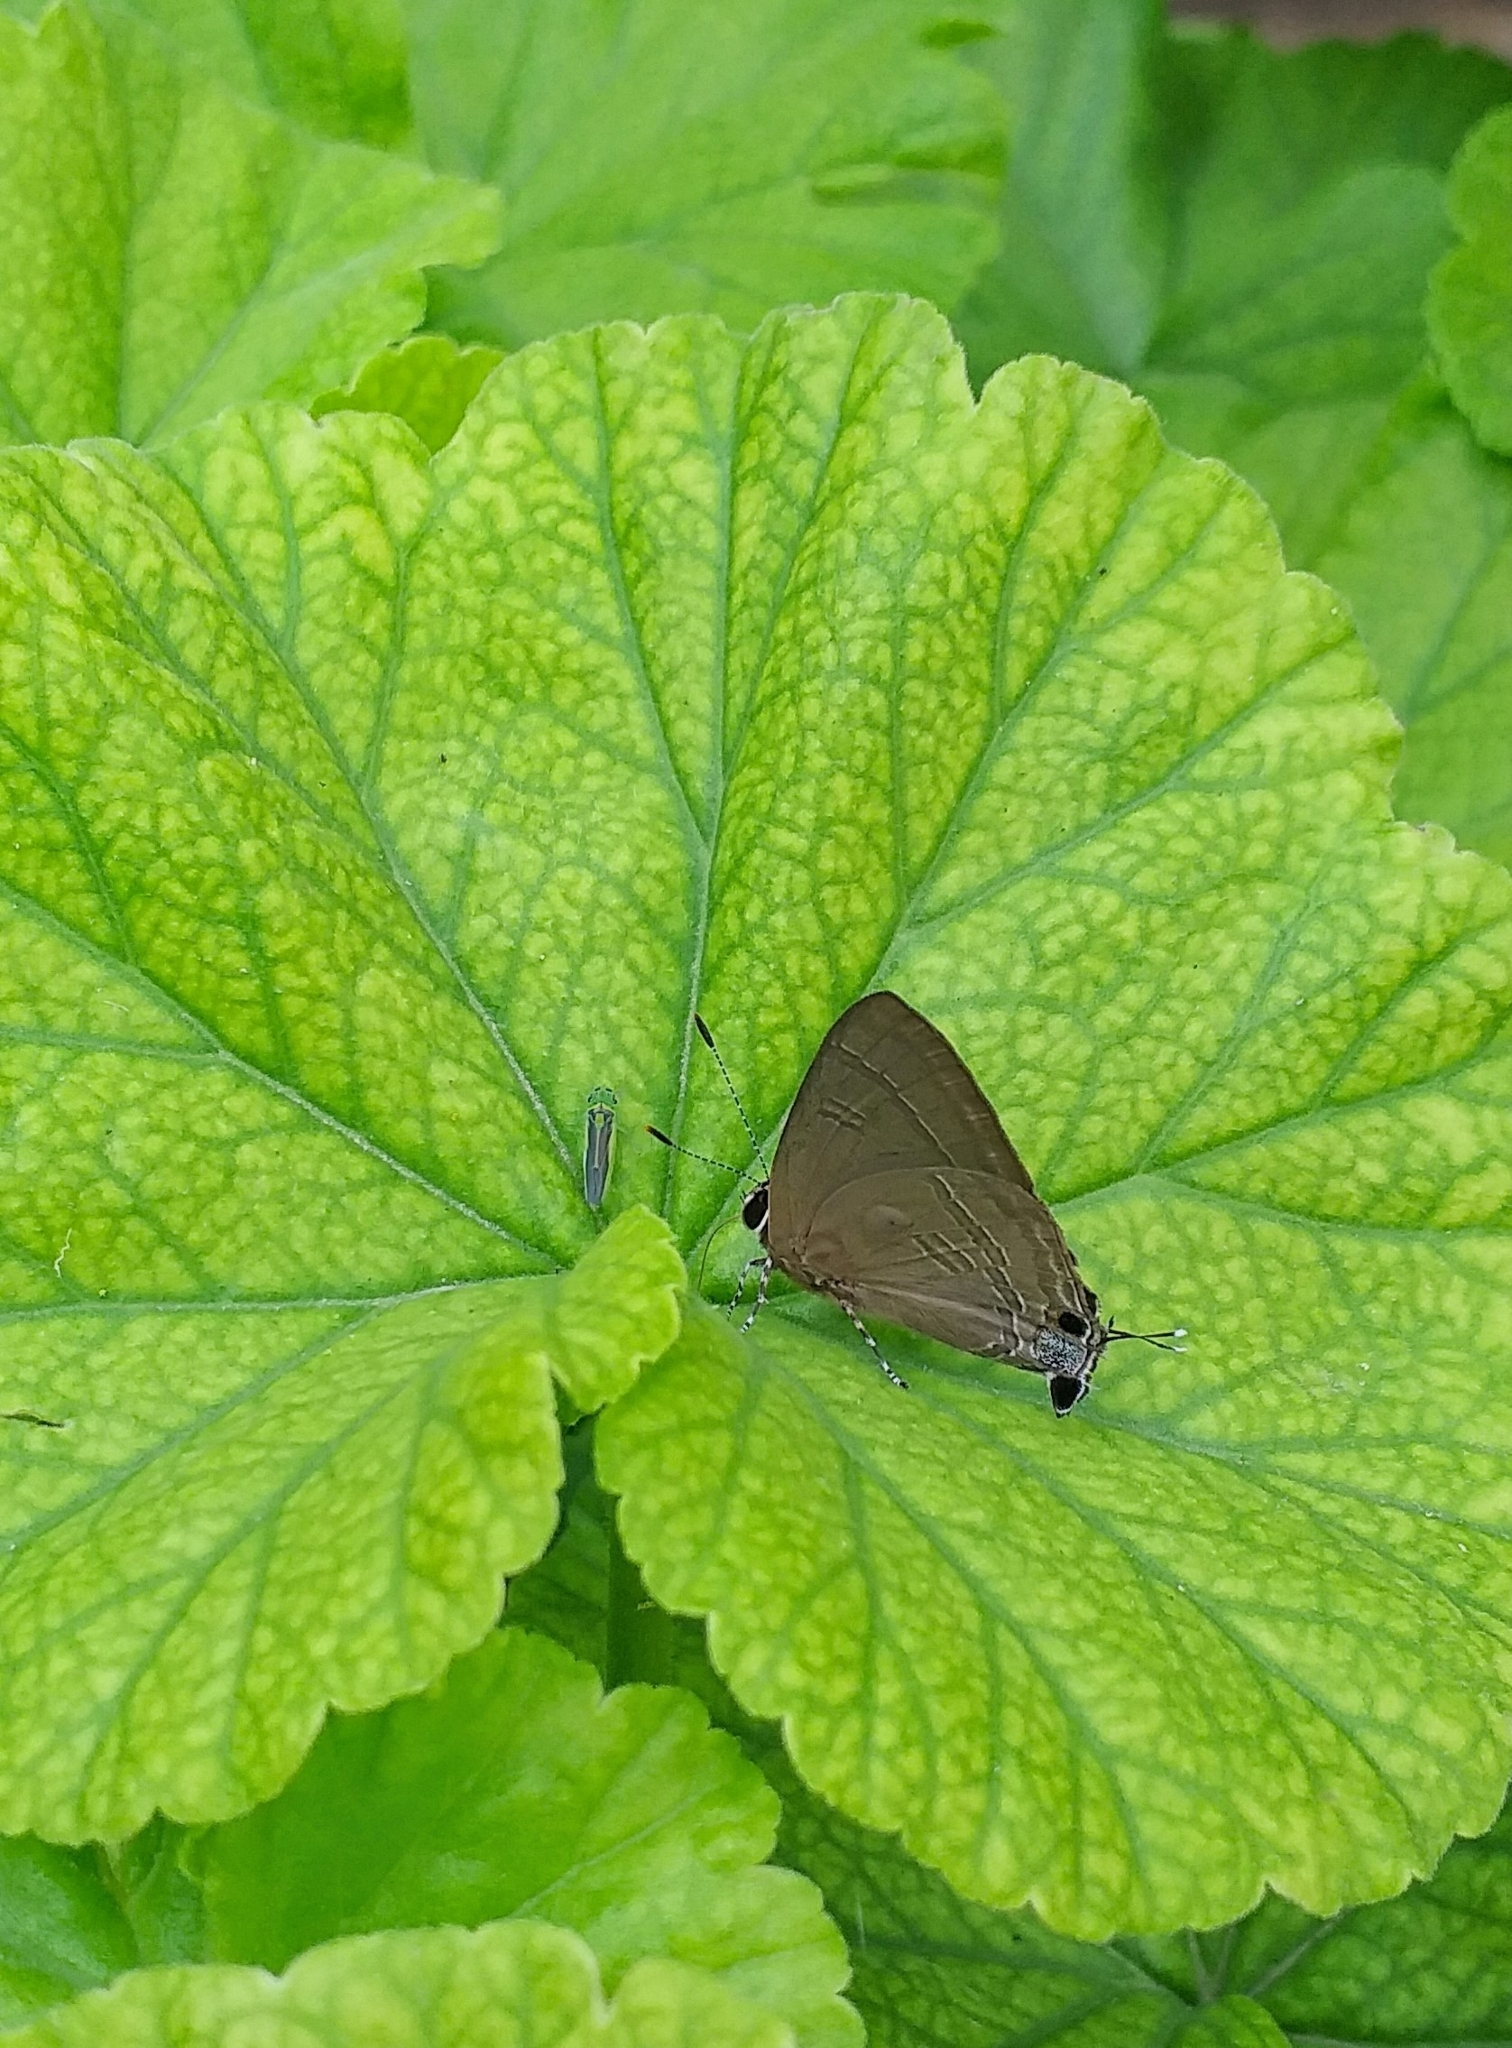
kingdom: Animalia
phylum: Arthropoda
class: Insecta
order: Lepidoptera
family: Lycaenidae
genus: Rapala
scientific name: Rapala manea
